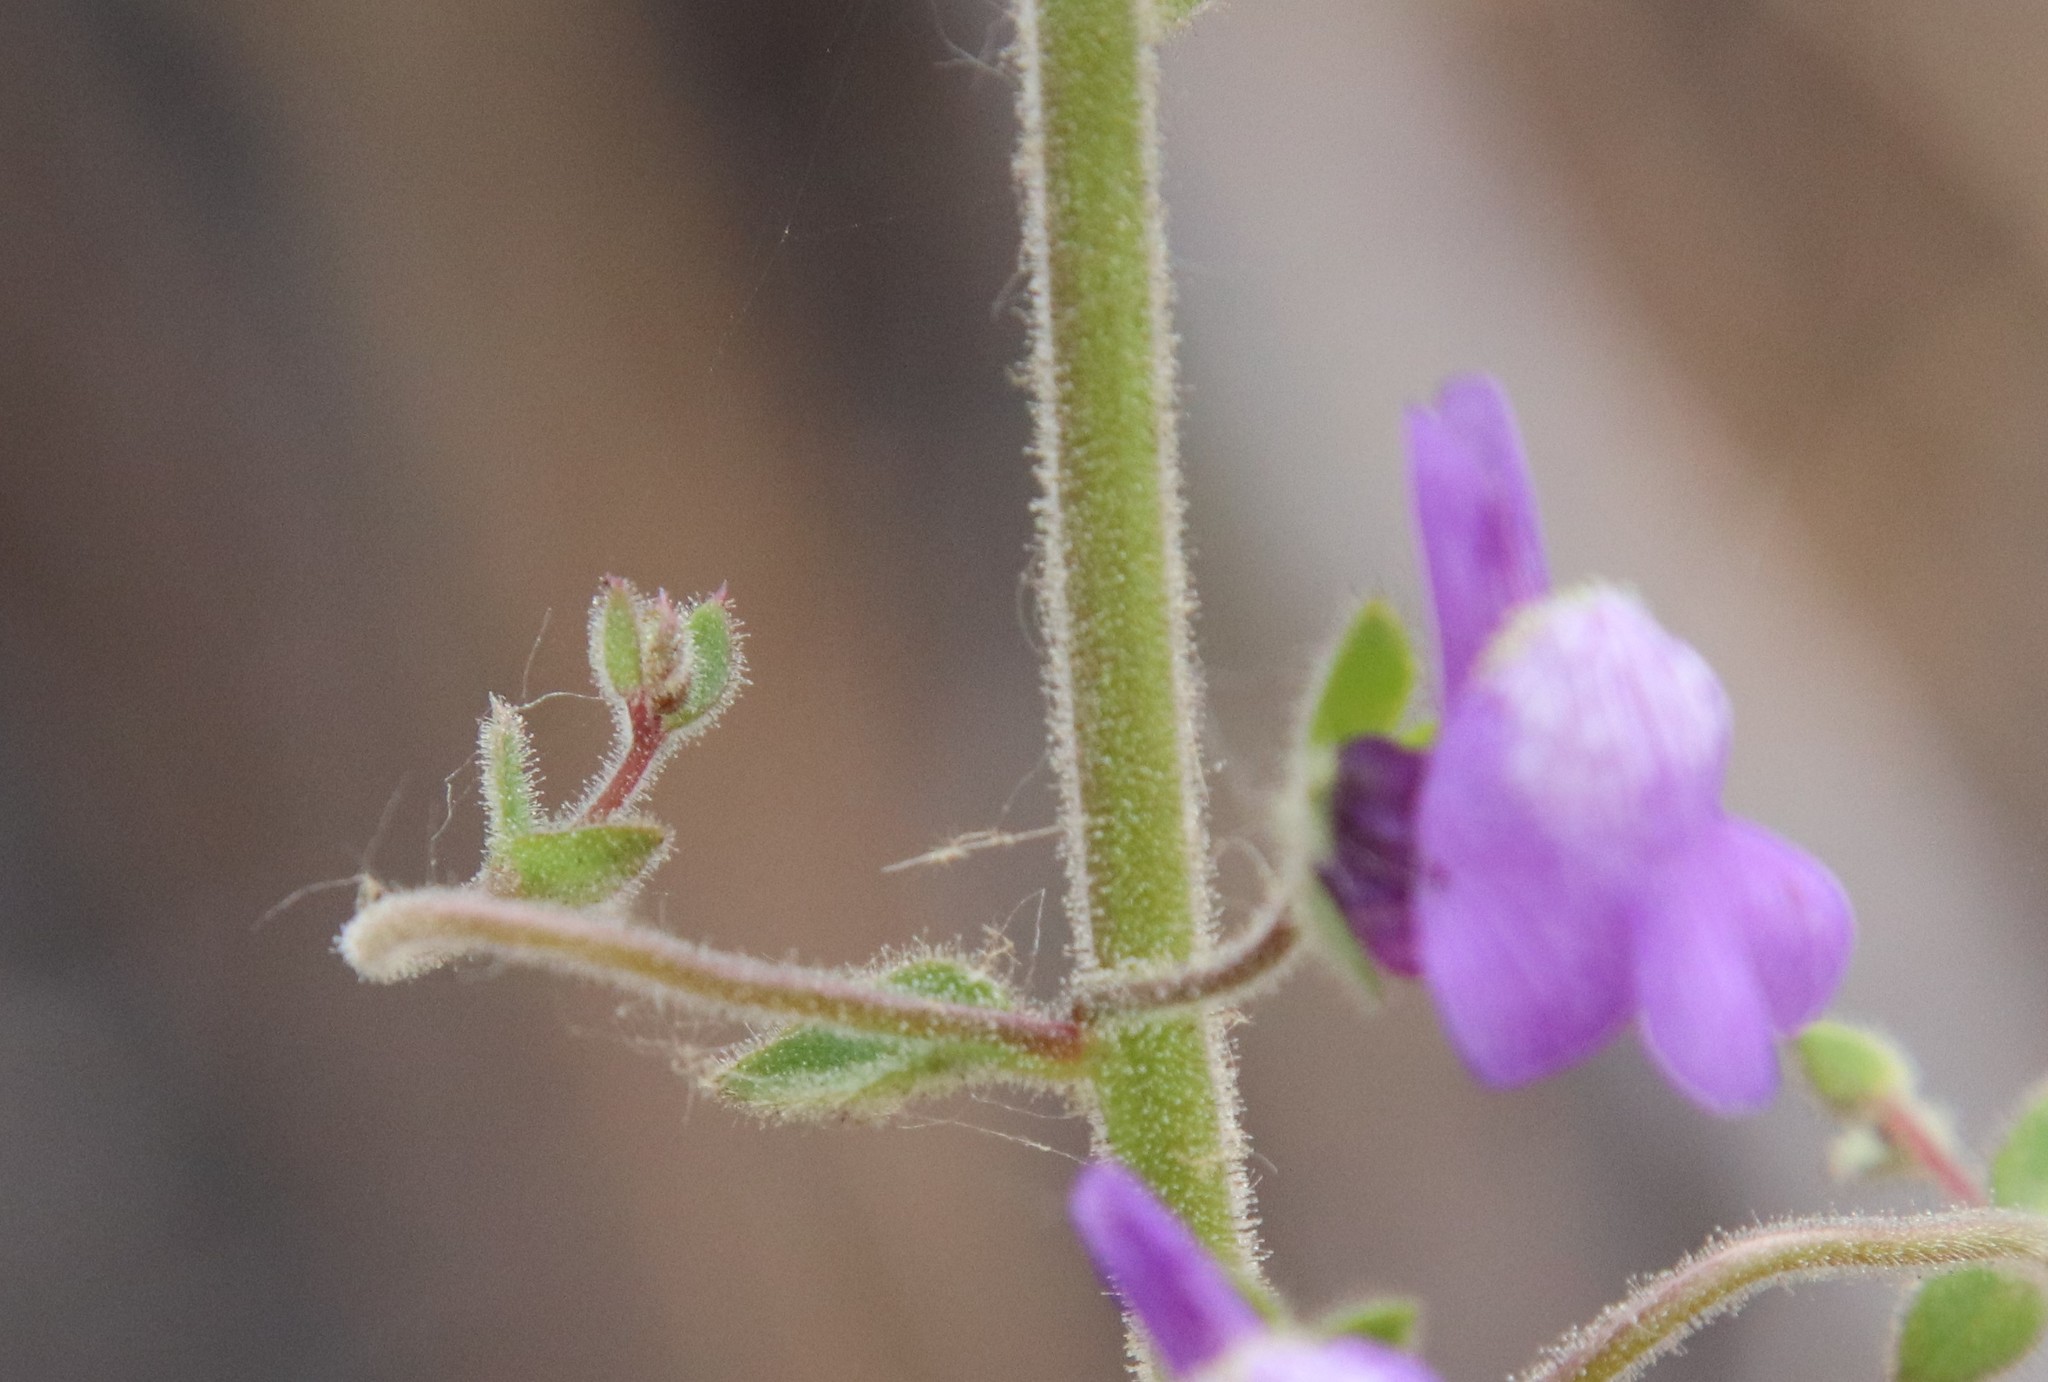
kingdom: Plantae
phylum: Tracheophyta
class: Magnoliopsida
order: Lamiales
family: Plantaginaceae
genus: Sairocarpus
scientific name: Sairocarpus nuttallianus
